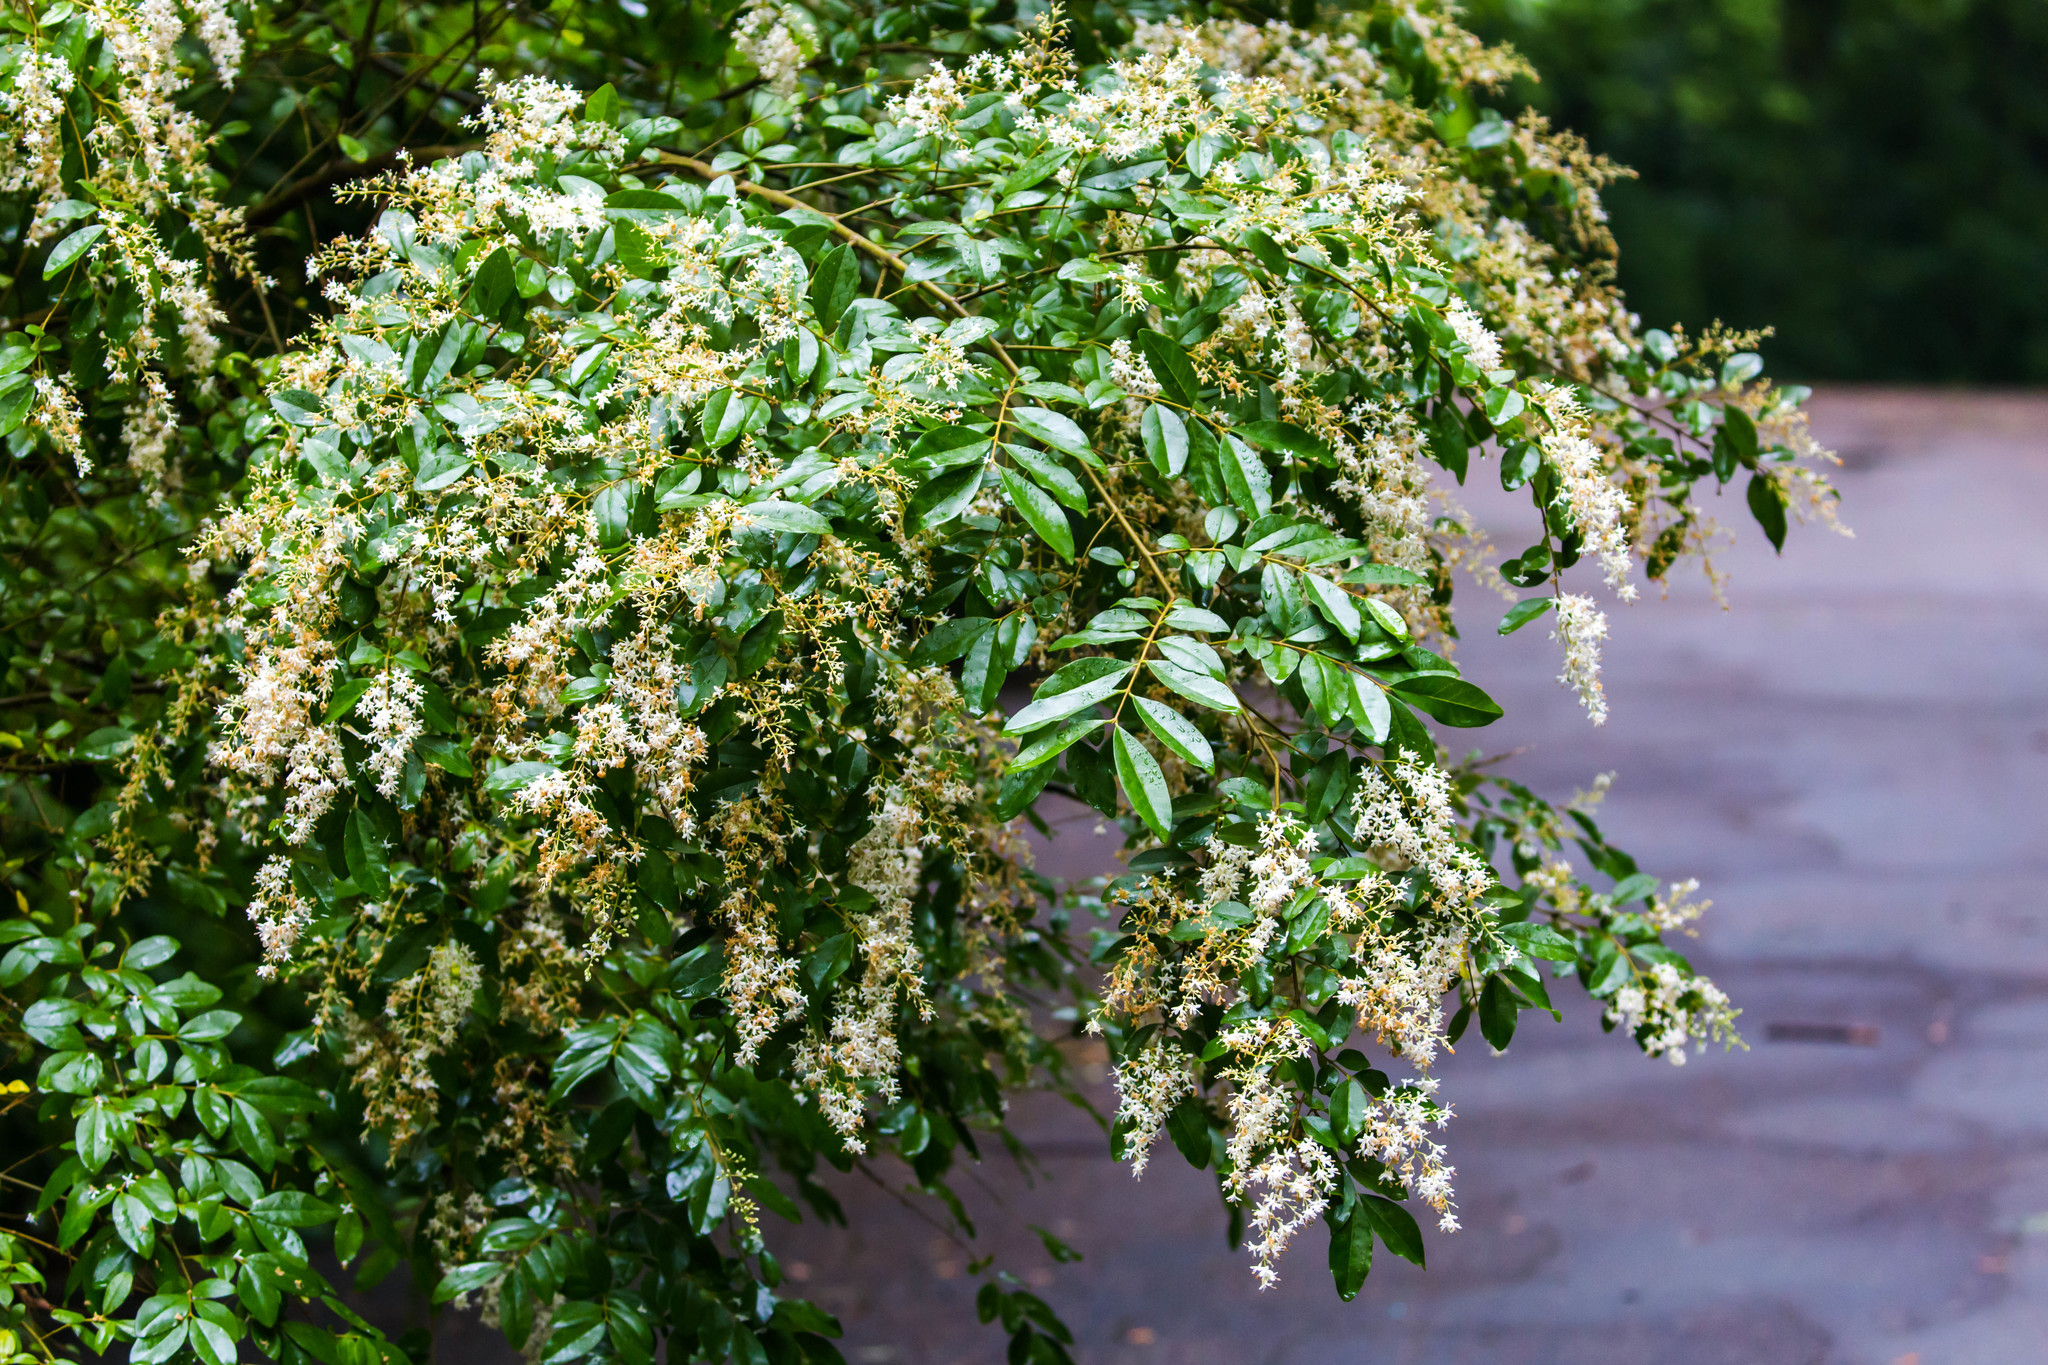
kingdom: Plantae
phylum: Tracheophyta
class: Magnoliopsida
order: Lamiales
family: Oleaceae
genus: Ligustrum
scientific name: Ligustrum sinense
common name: Chinese privet
